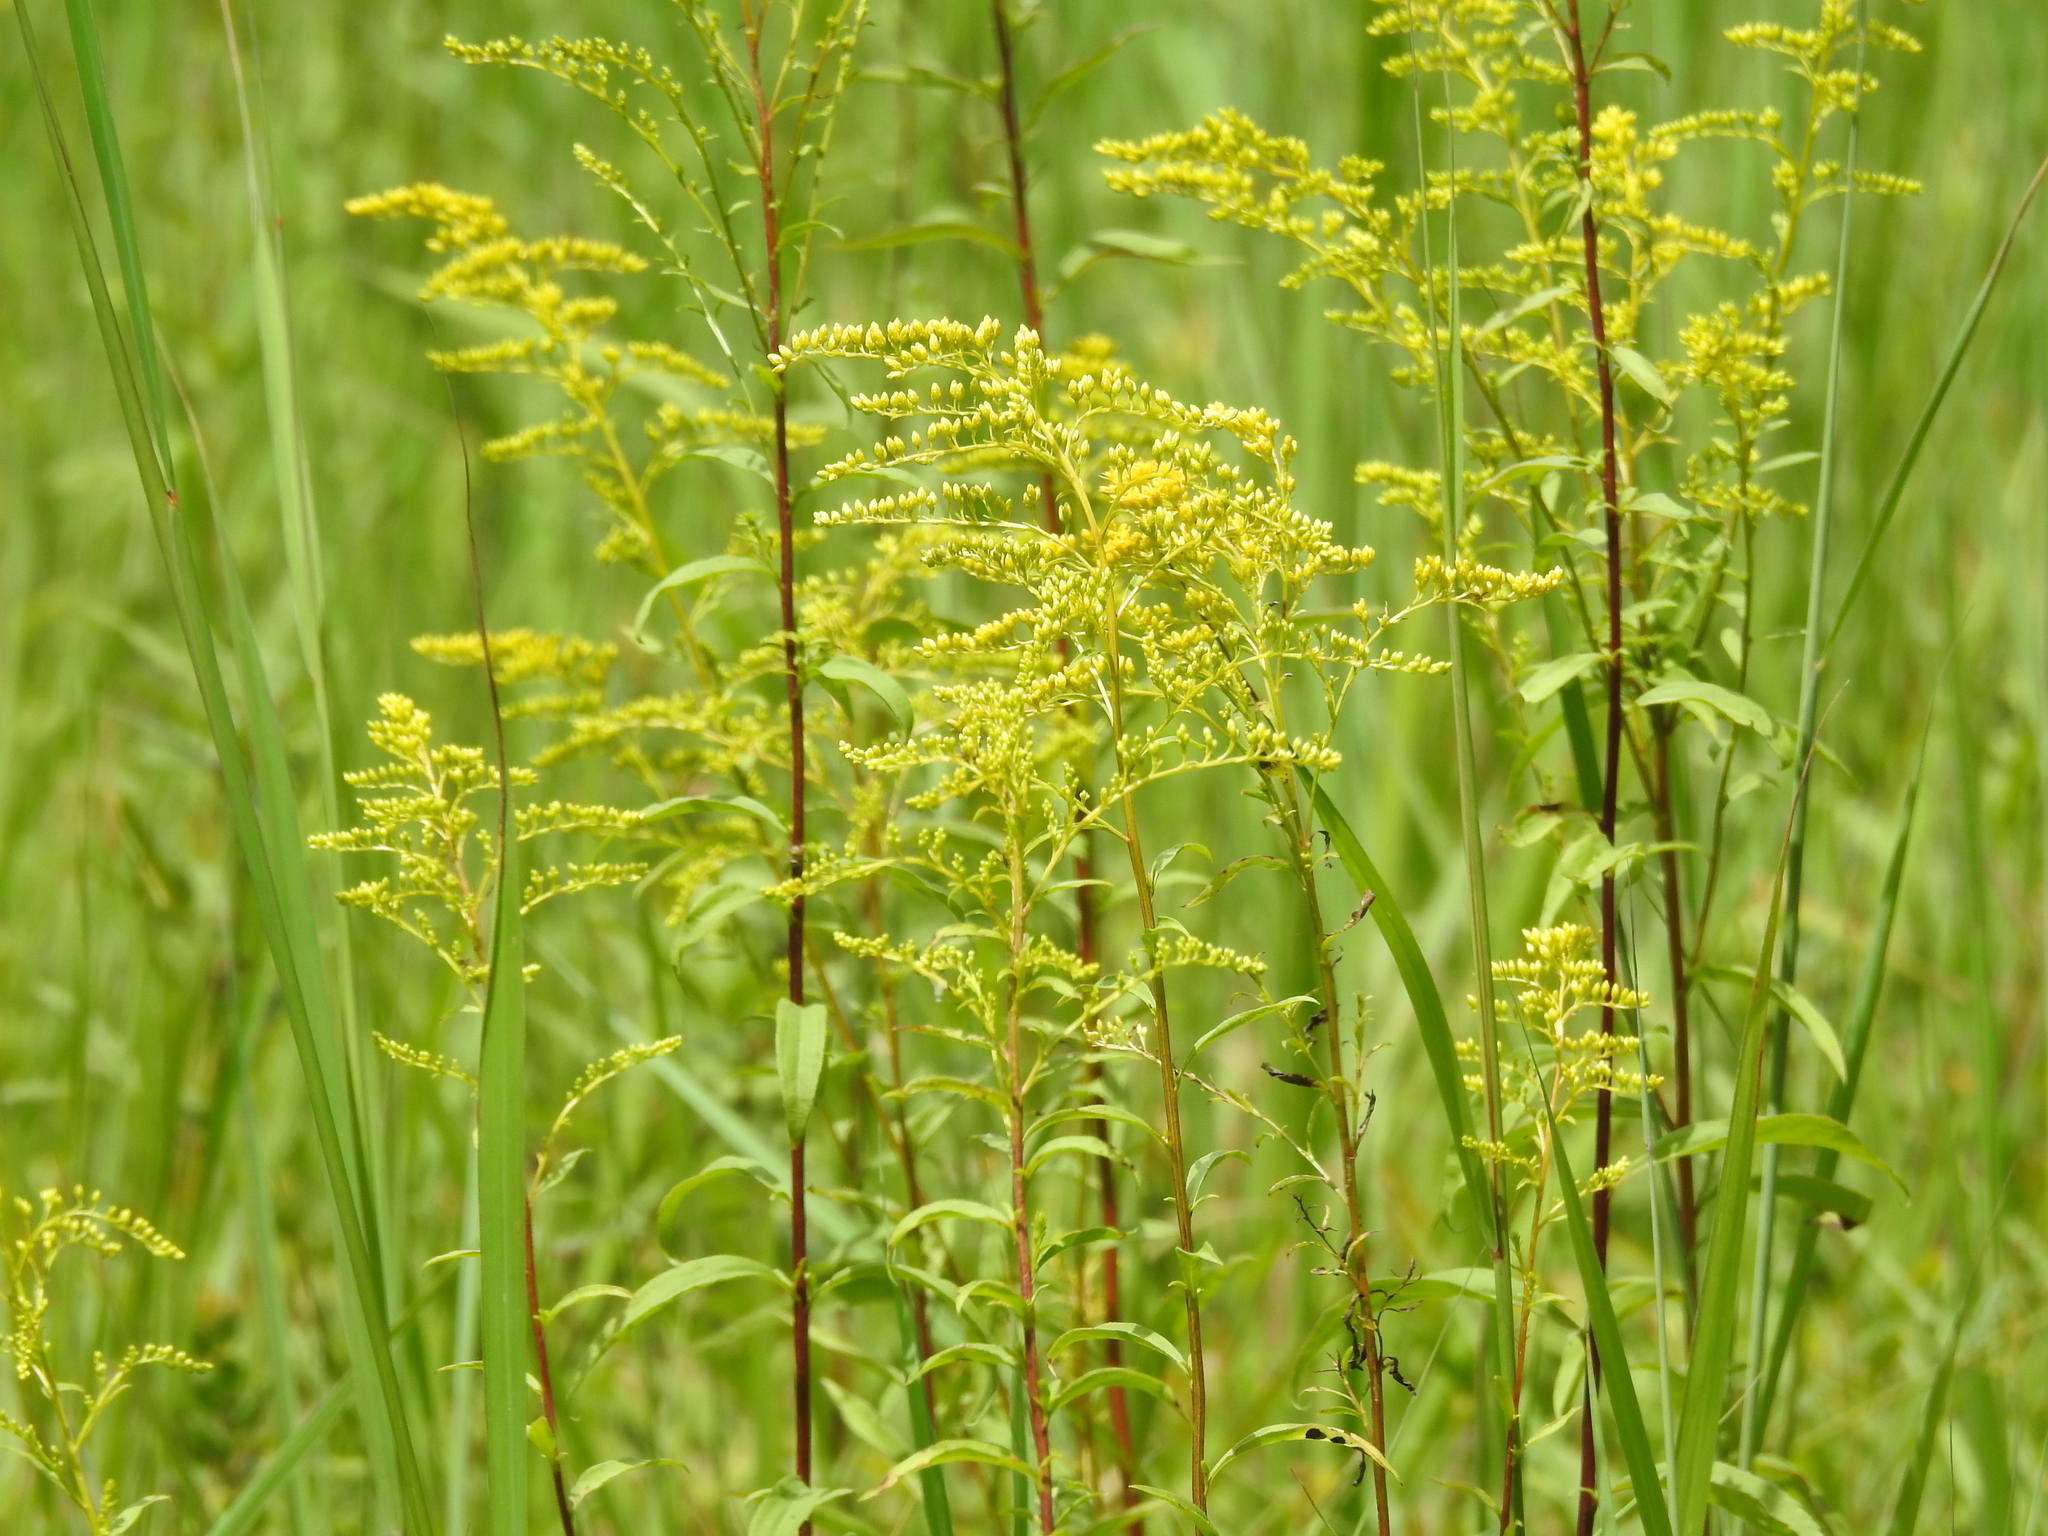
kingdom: Plantae
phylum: Tracheophyta
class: Magnoliopsida
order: Asterales
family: Asteraceae
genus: Solidago
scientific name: Solidago juncea
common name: Early goldenrod
